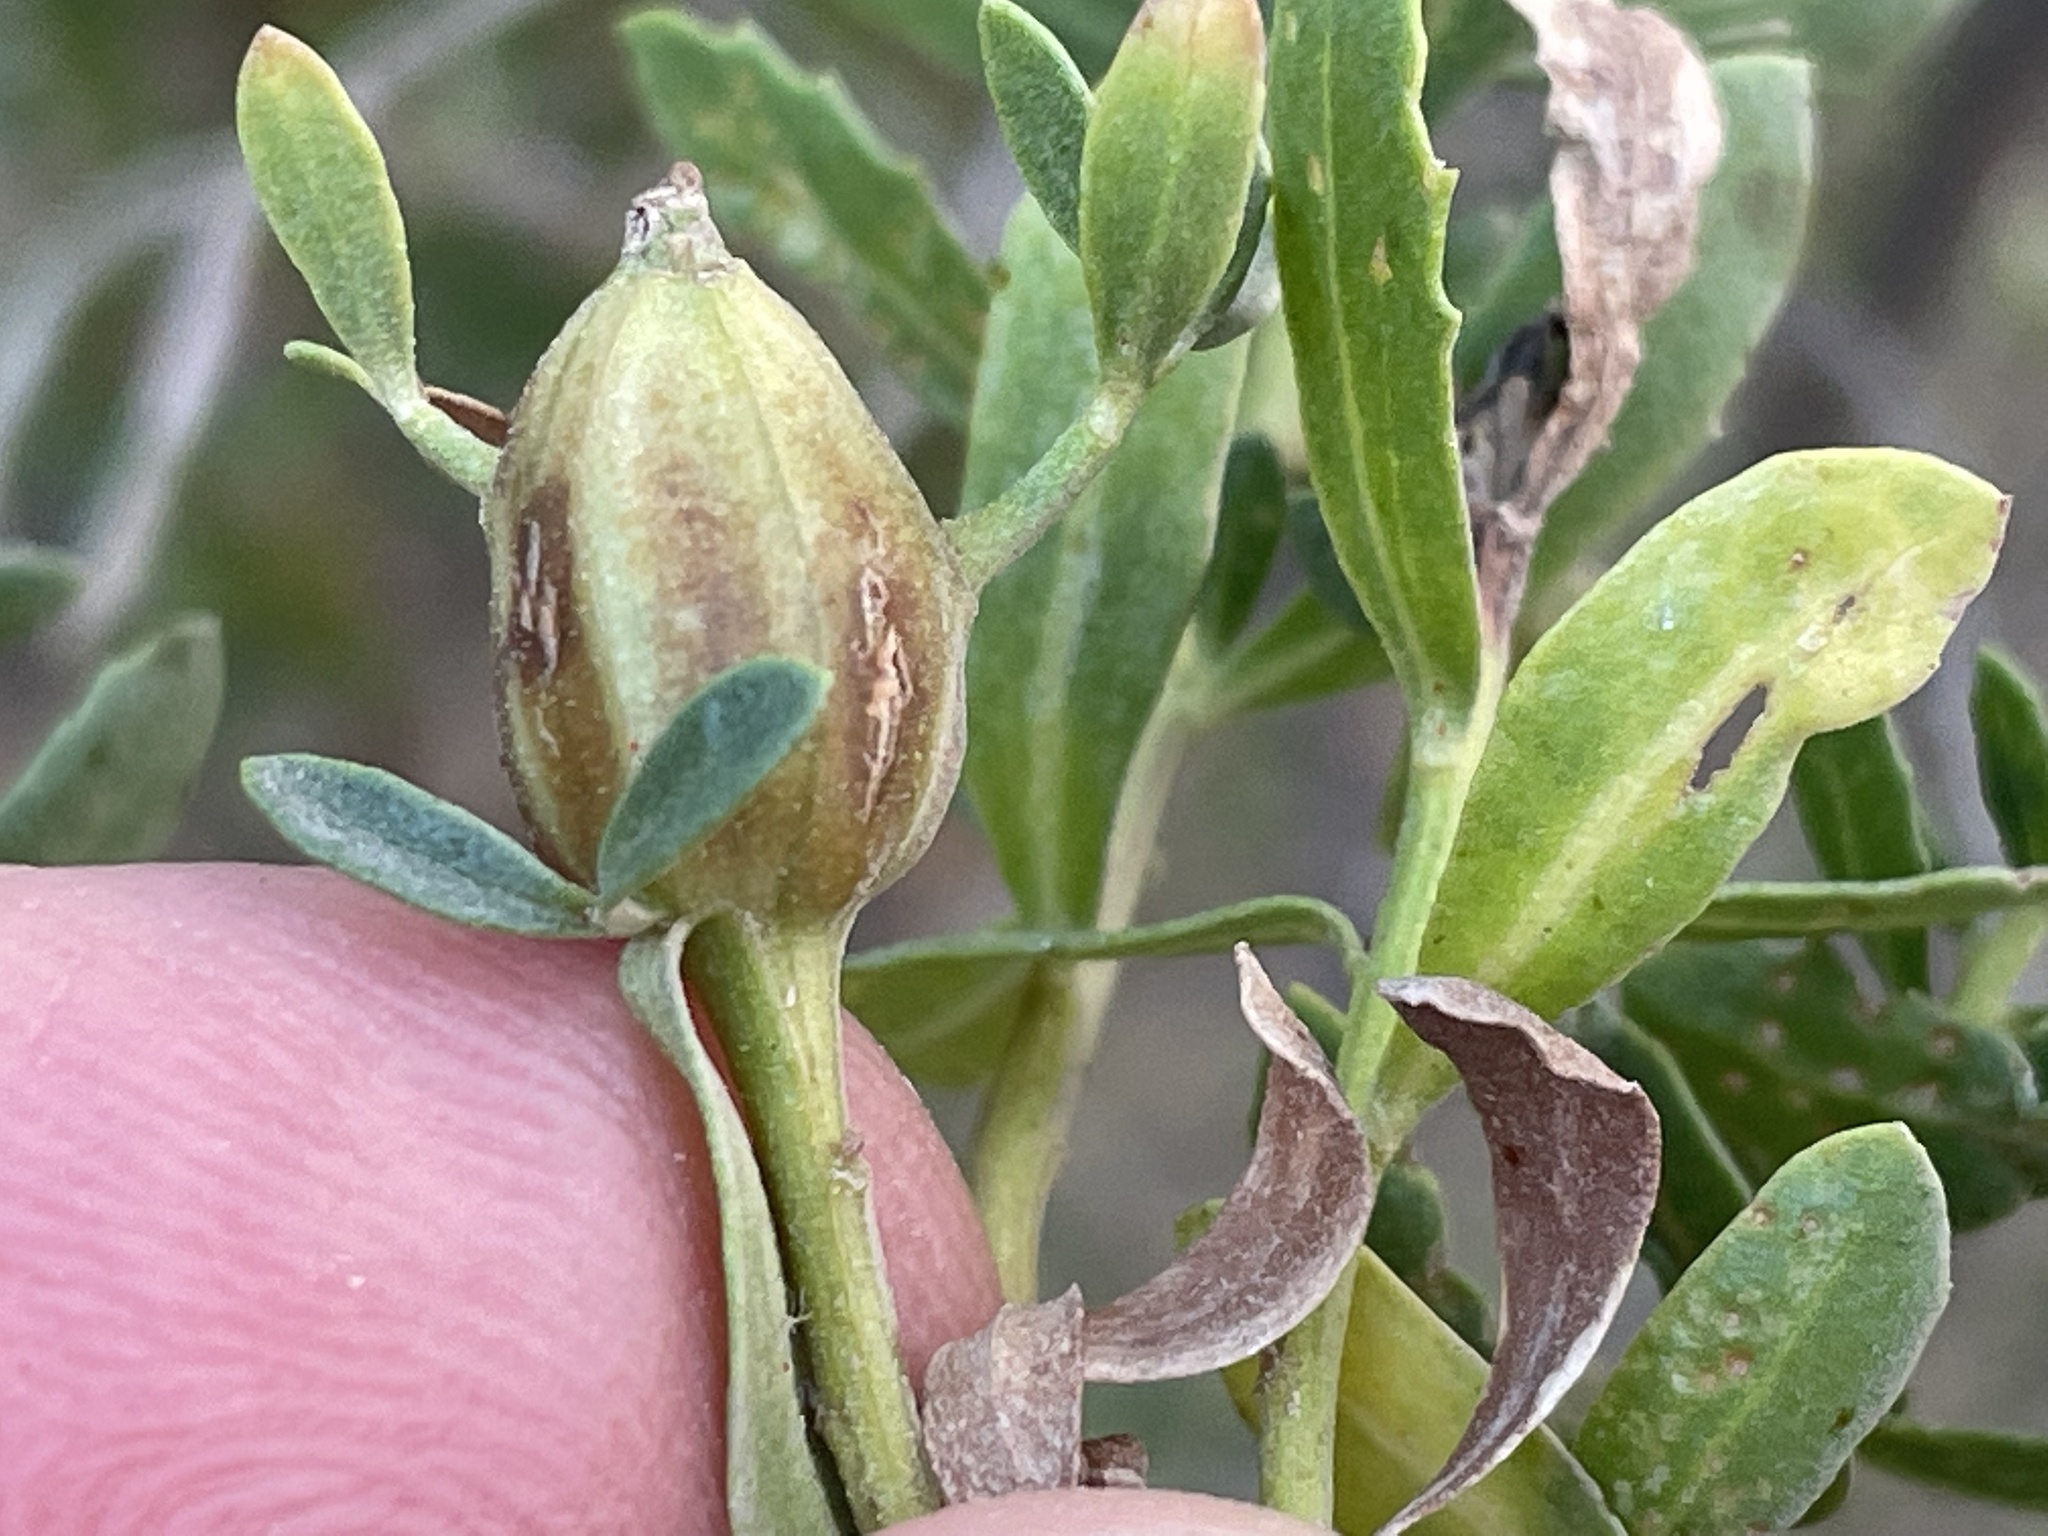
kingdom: Animalia
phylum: Arthropoda
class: Insecta
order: Lepidoptera
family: Gelechiidae
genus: Gnorimoschema
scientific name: Gnorimoschema baccharisella
